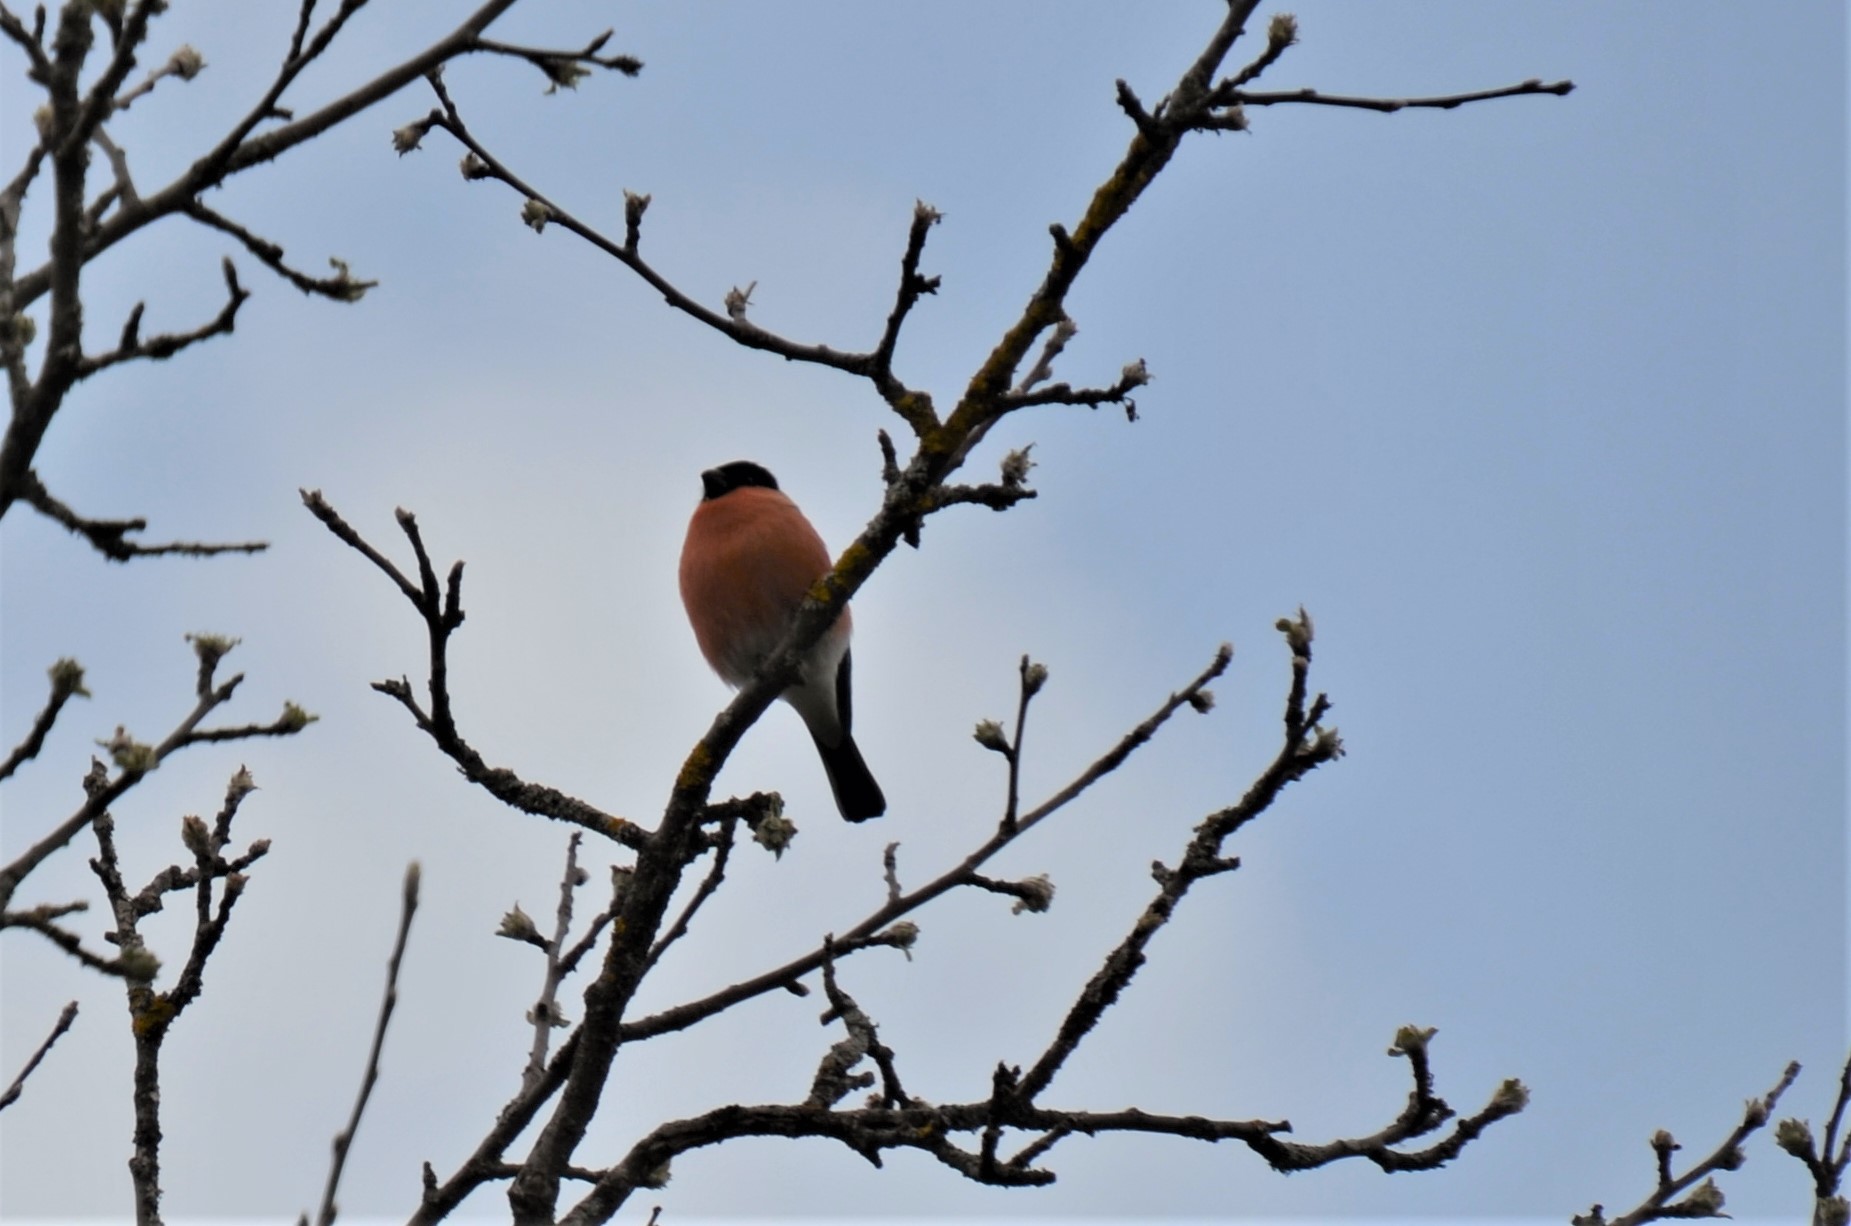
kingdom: Animalia
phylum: Chordata
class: Aves
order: Passeriformes
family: Fringillidae
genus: Pyrrhula
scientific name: Pyrrhula pyrrhula
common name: Eurasian bullfinch
